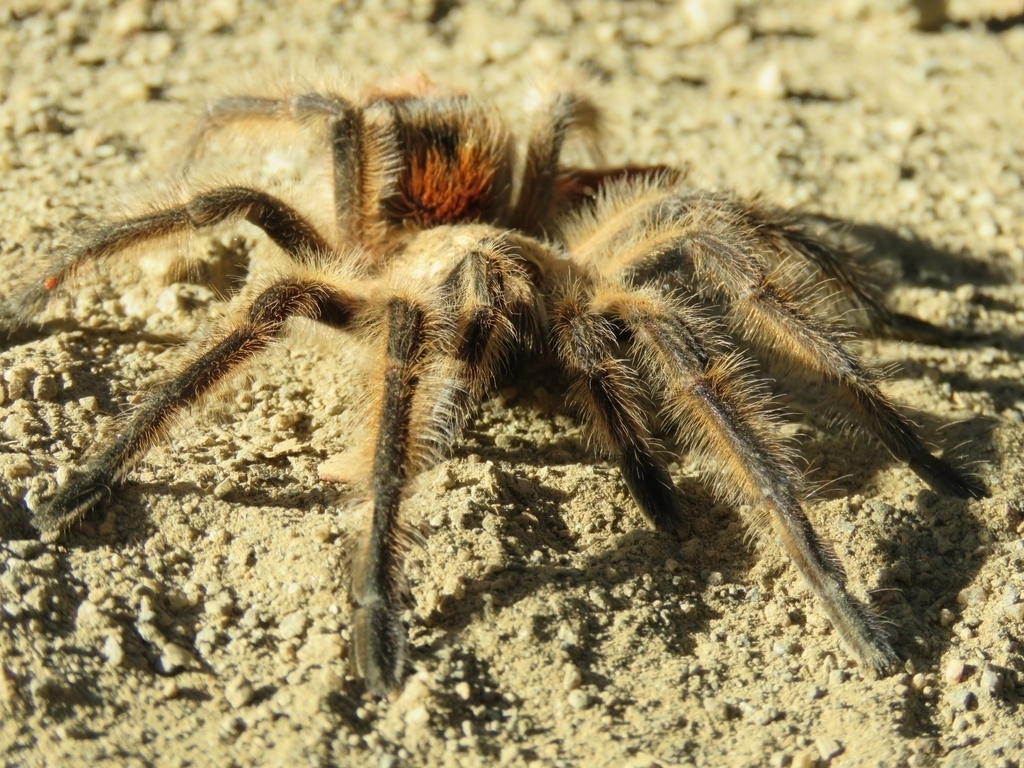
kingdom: Animalia
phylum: Arthropoda
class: Arachnida
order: Araneae
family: Theraphosidae
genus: Phrixotrichus
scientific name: Phrixotrichus scrofa
